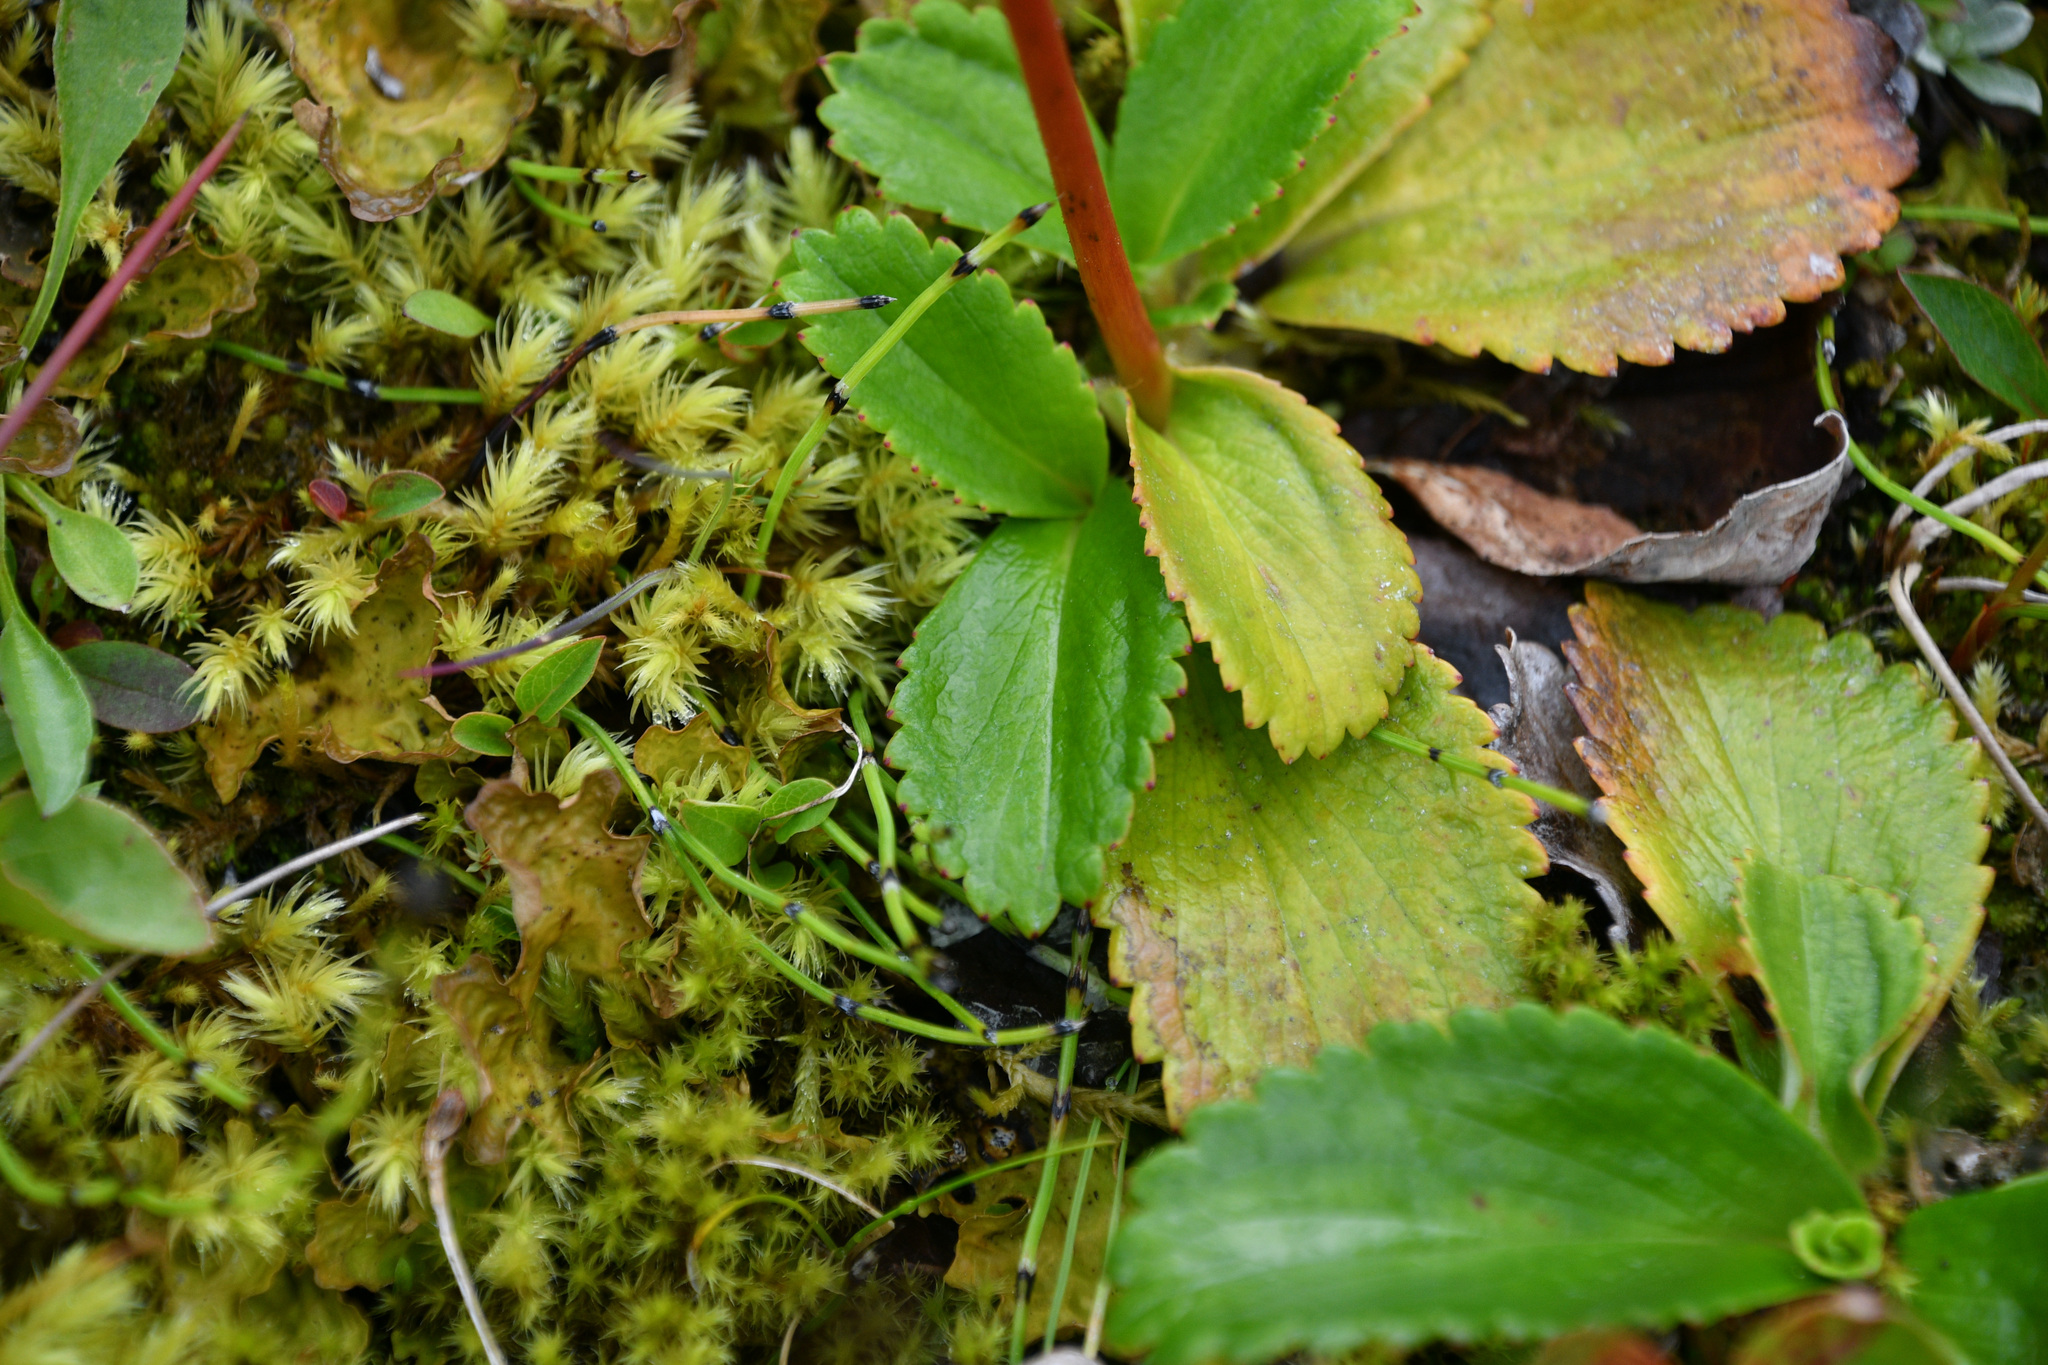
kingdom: Plantae
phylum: Tracheophyta
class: Magnoliopsida
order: Saxifragales
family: Saxifragaceae
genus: Leptarrhena
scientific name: Leptarrhena pyrolifolia
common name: Leatherleaf-saxifrage
